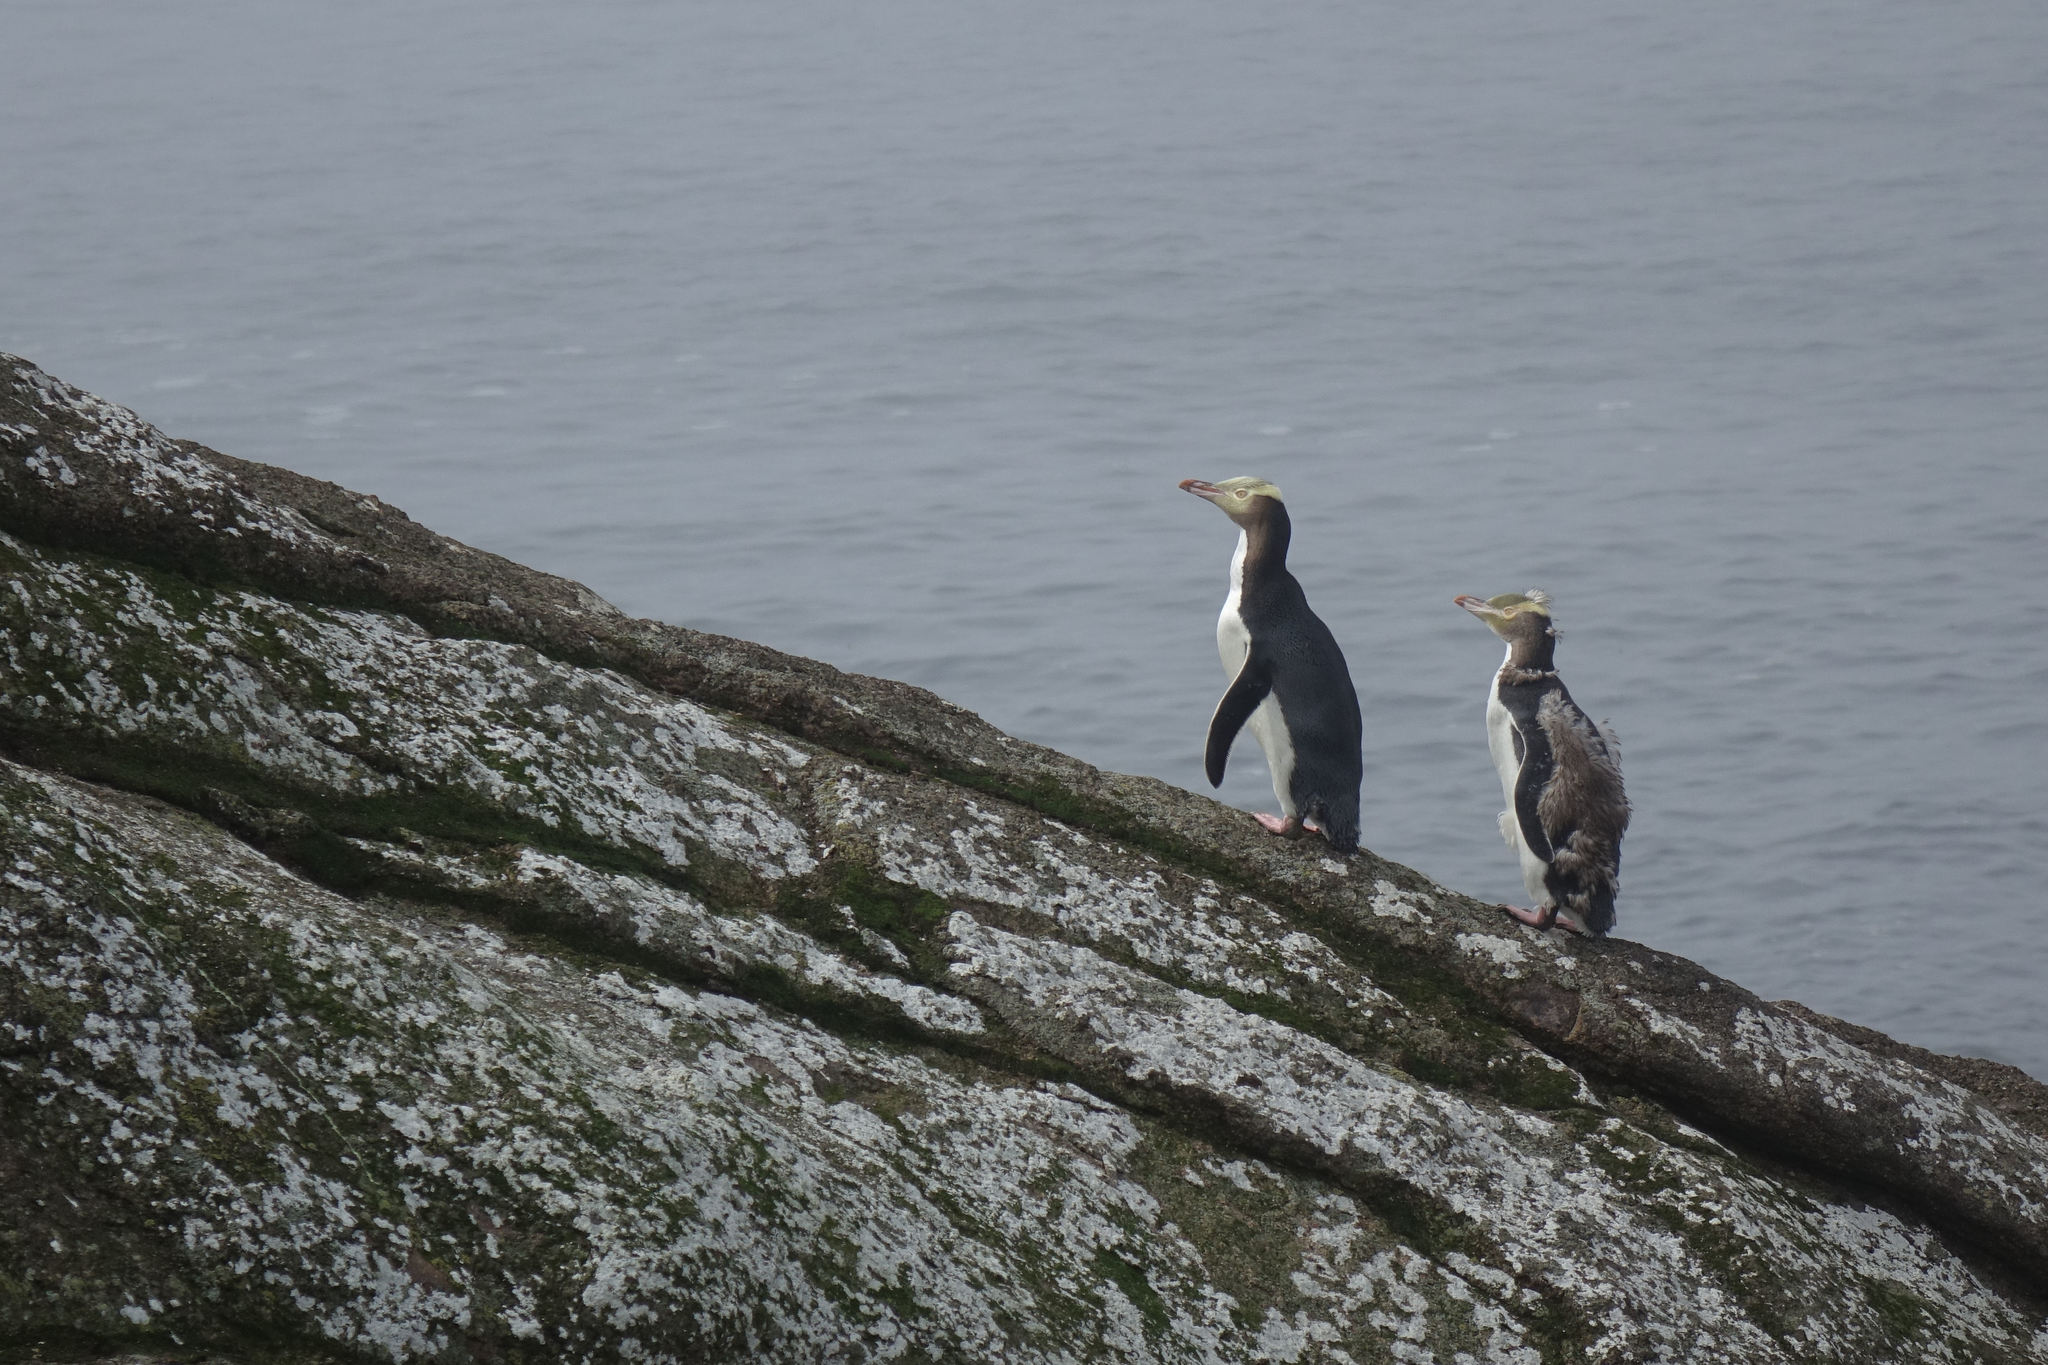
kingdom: Animalia
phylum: Chordata
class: Aves
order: Sphenisciformes
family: Spheniscidae
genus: Megadyptes
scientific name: Megadyptes antipodes
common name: Yellow-eyed penguin
